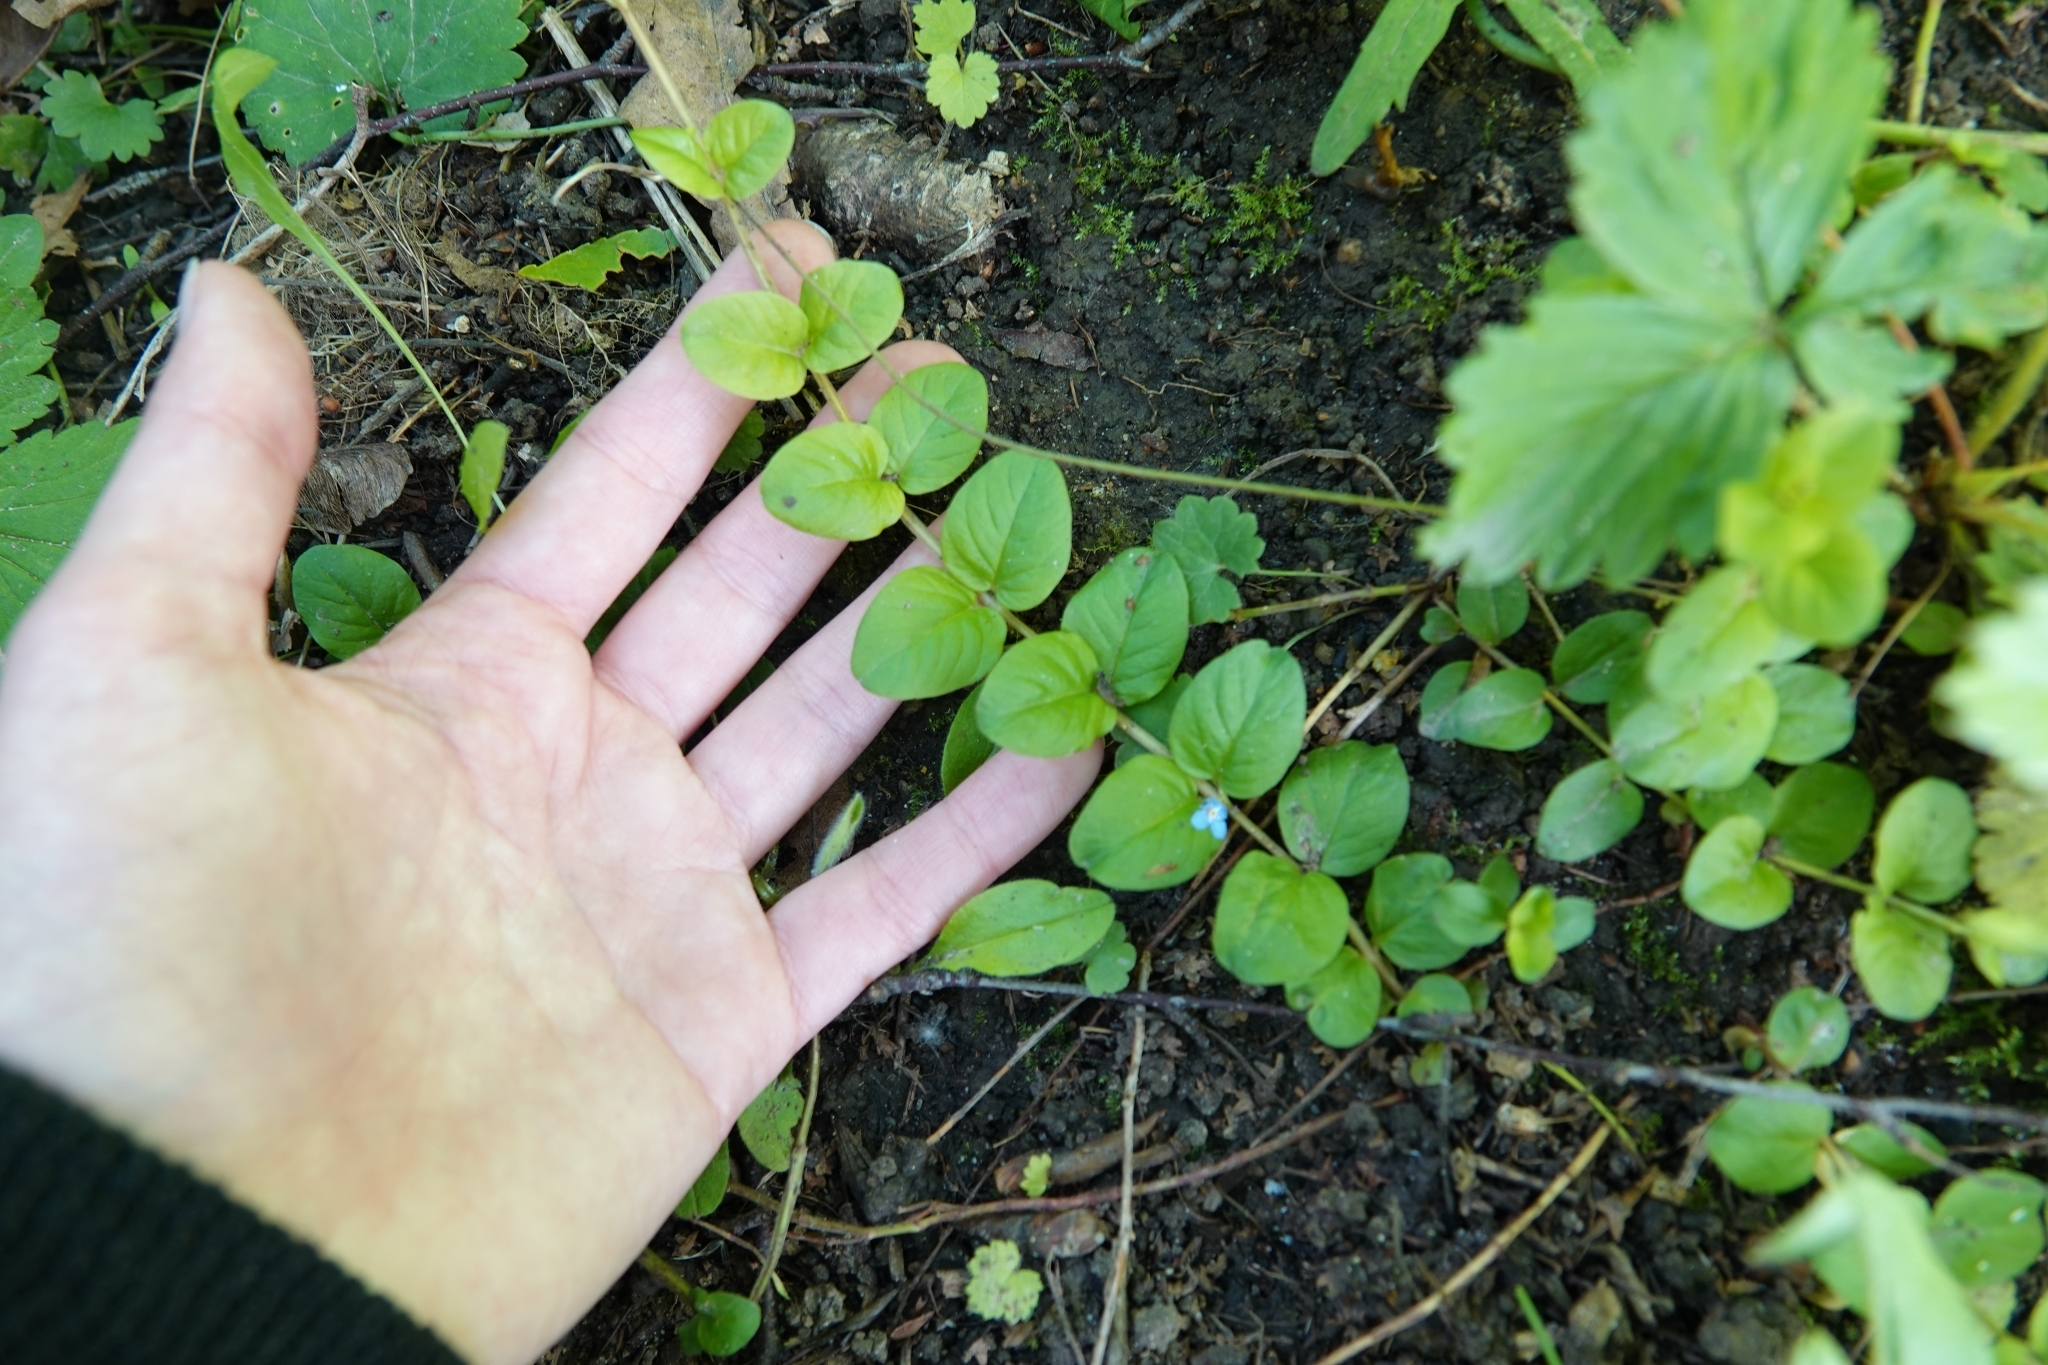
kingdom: Plantae
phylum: Tracheophyta
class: Magnoliopsida
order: Ericales
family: Primulaceae
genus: Lysimachia
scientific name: Lysimachia nummularia
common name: Moneywort
